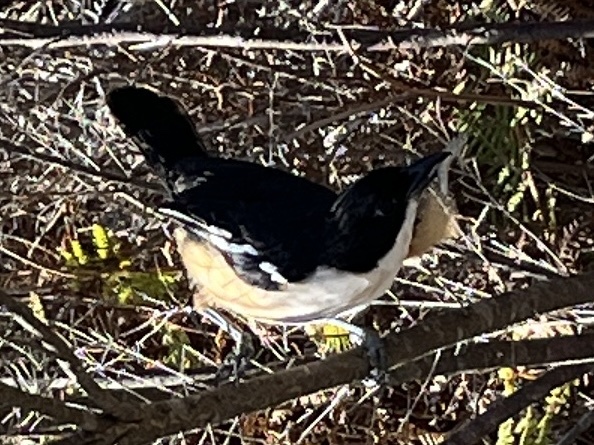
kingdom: Animalia
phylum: Chordata
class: Aves
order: Passeriformes
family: Malaconotidae
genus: Laniarius
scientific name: Laniarius ferrugineus
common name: Southern boubou
